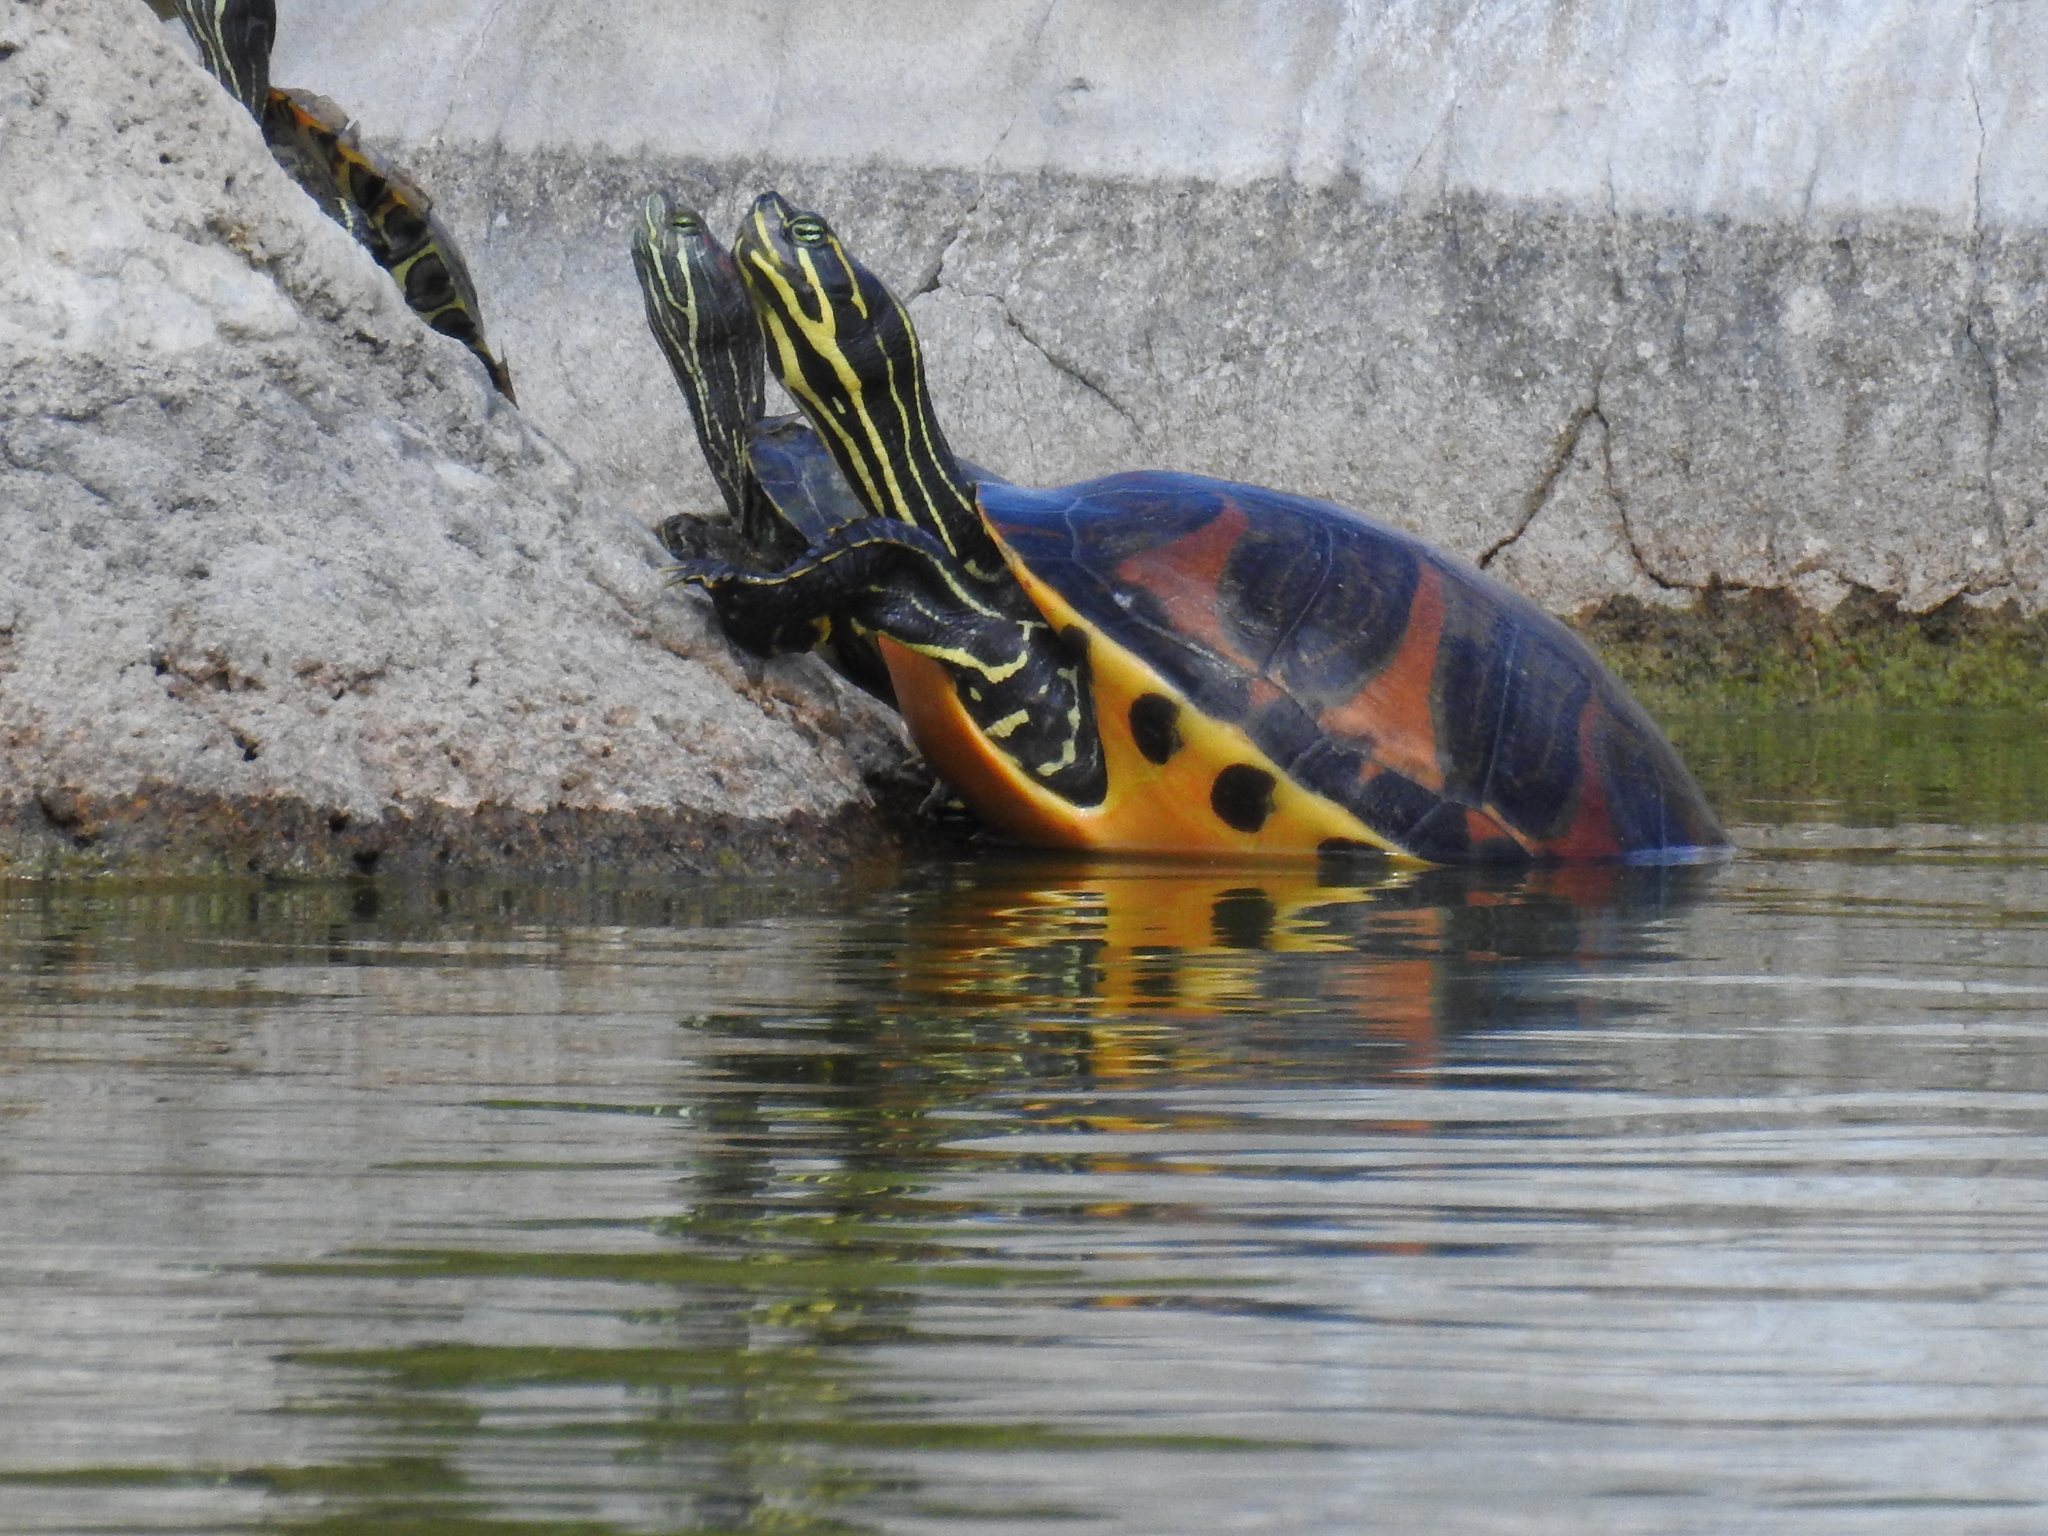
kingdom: Animalia
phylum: Chordata
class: Testudines
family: Emydidae
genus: Pseudemys
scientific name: Pseudemys nelsoni
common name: Florida red-bellied turtle
